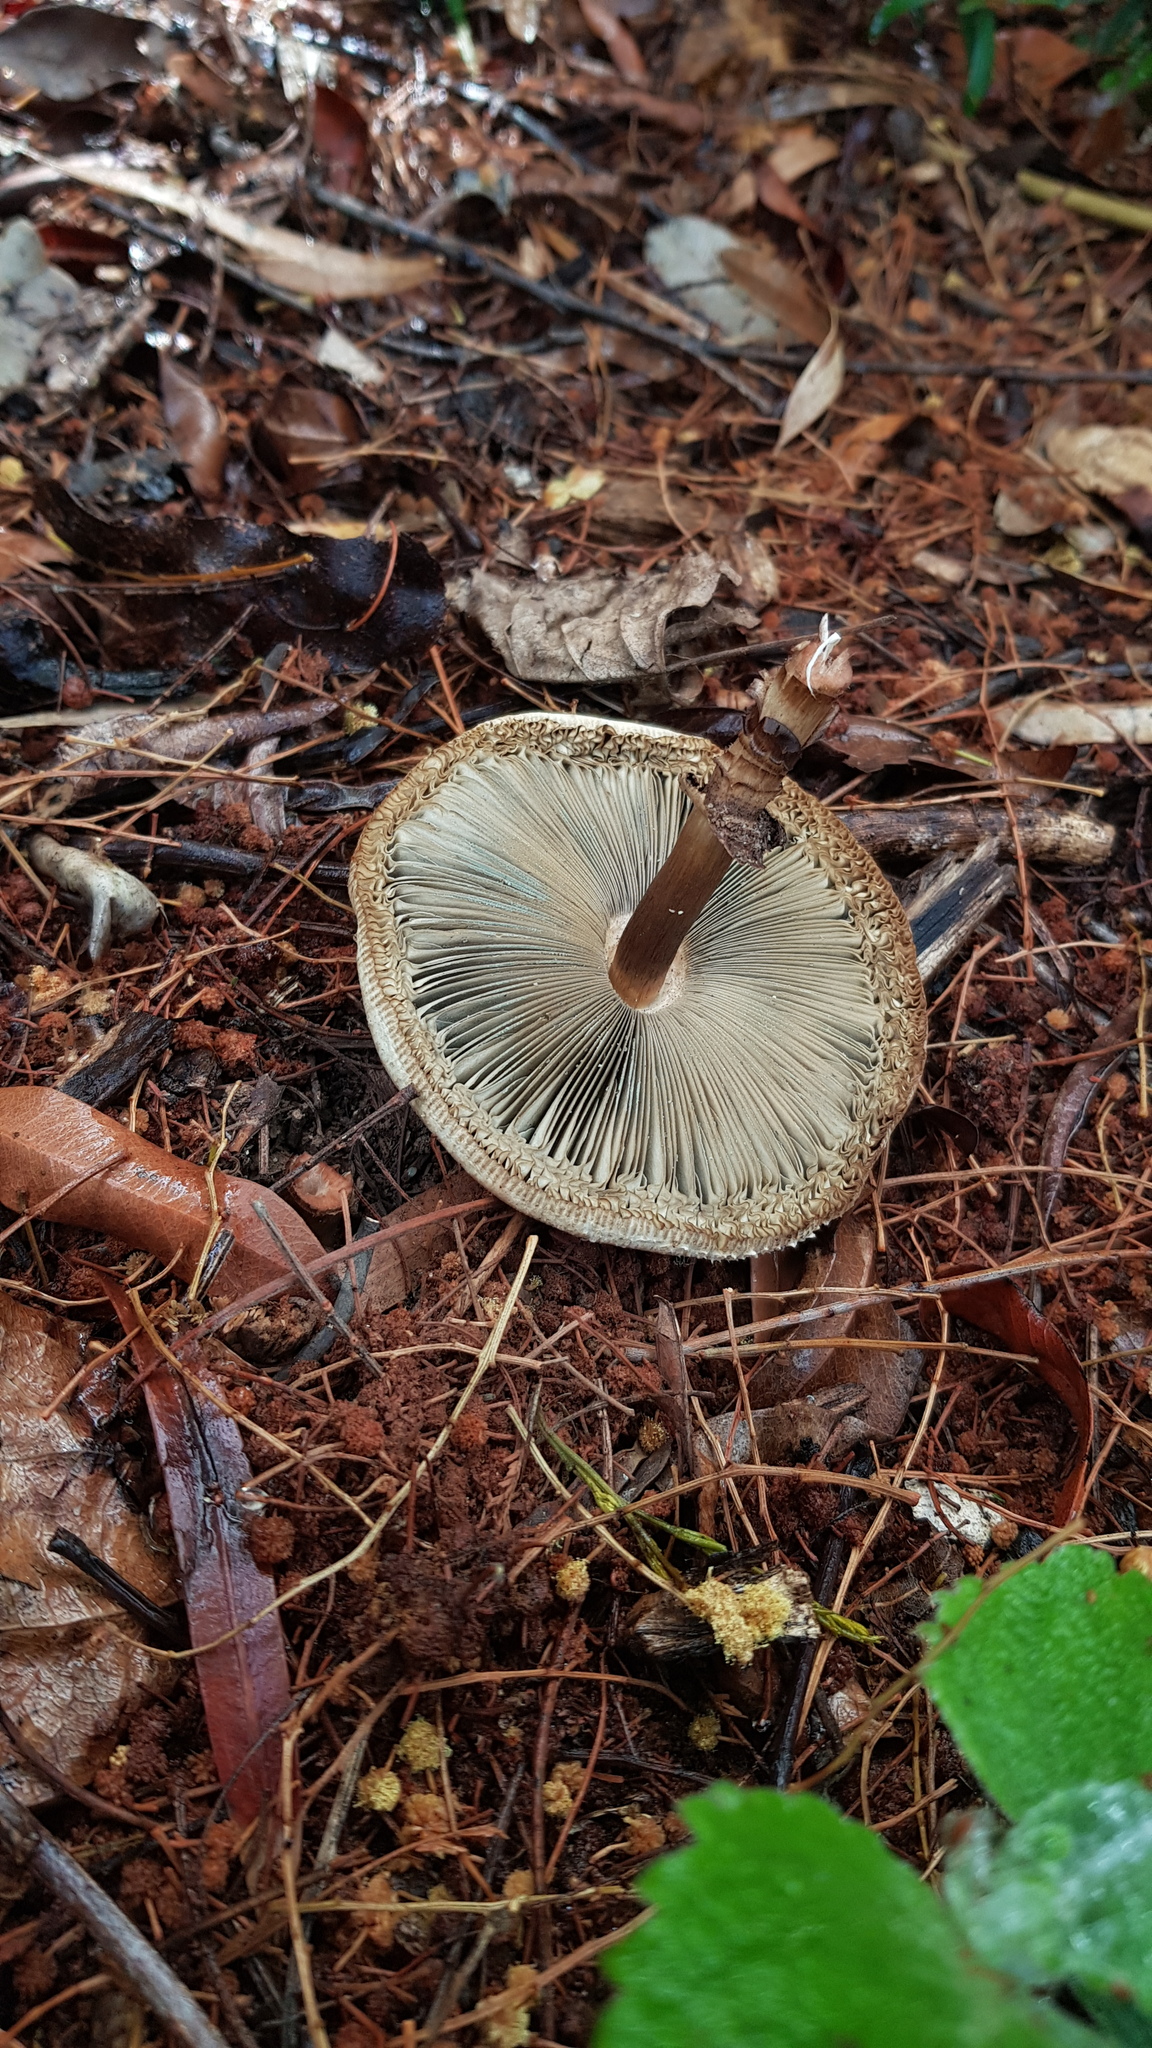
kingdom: Fungi
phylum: Basidiomycota
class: Agaricomycetes
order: Agaricales
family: Agaricaceae
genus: Chlorophyllum
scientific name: Chlorophyllum molybdites
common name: False parasol
